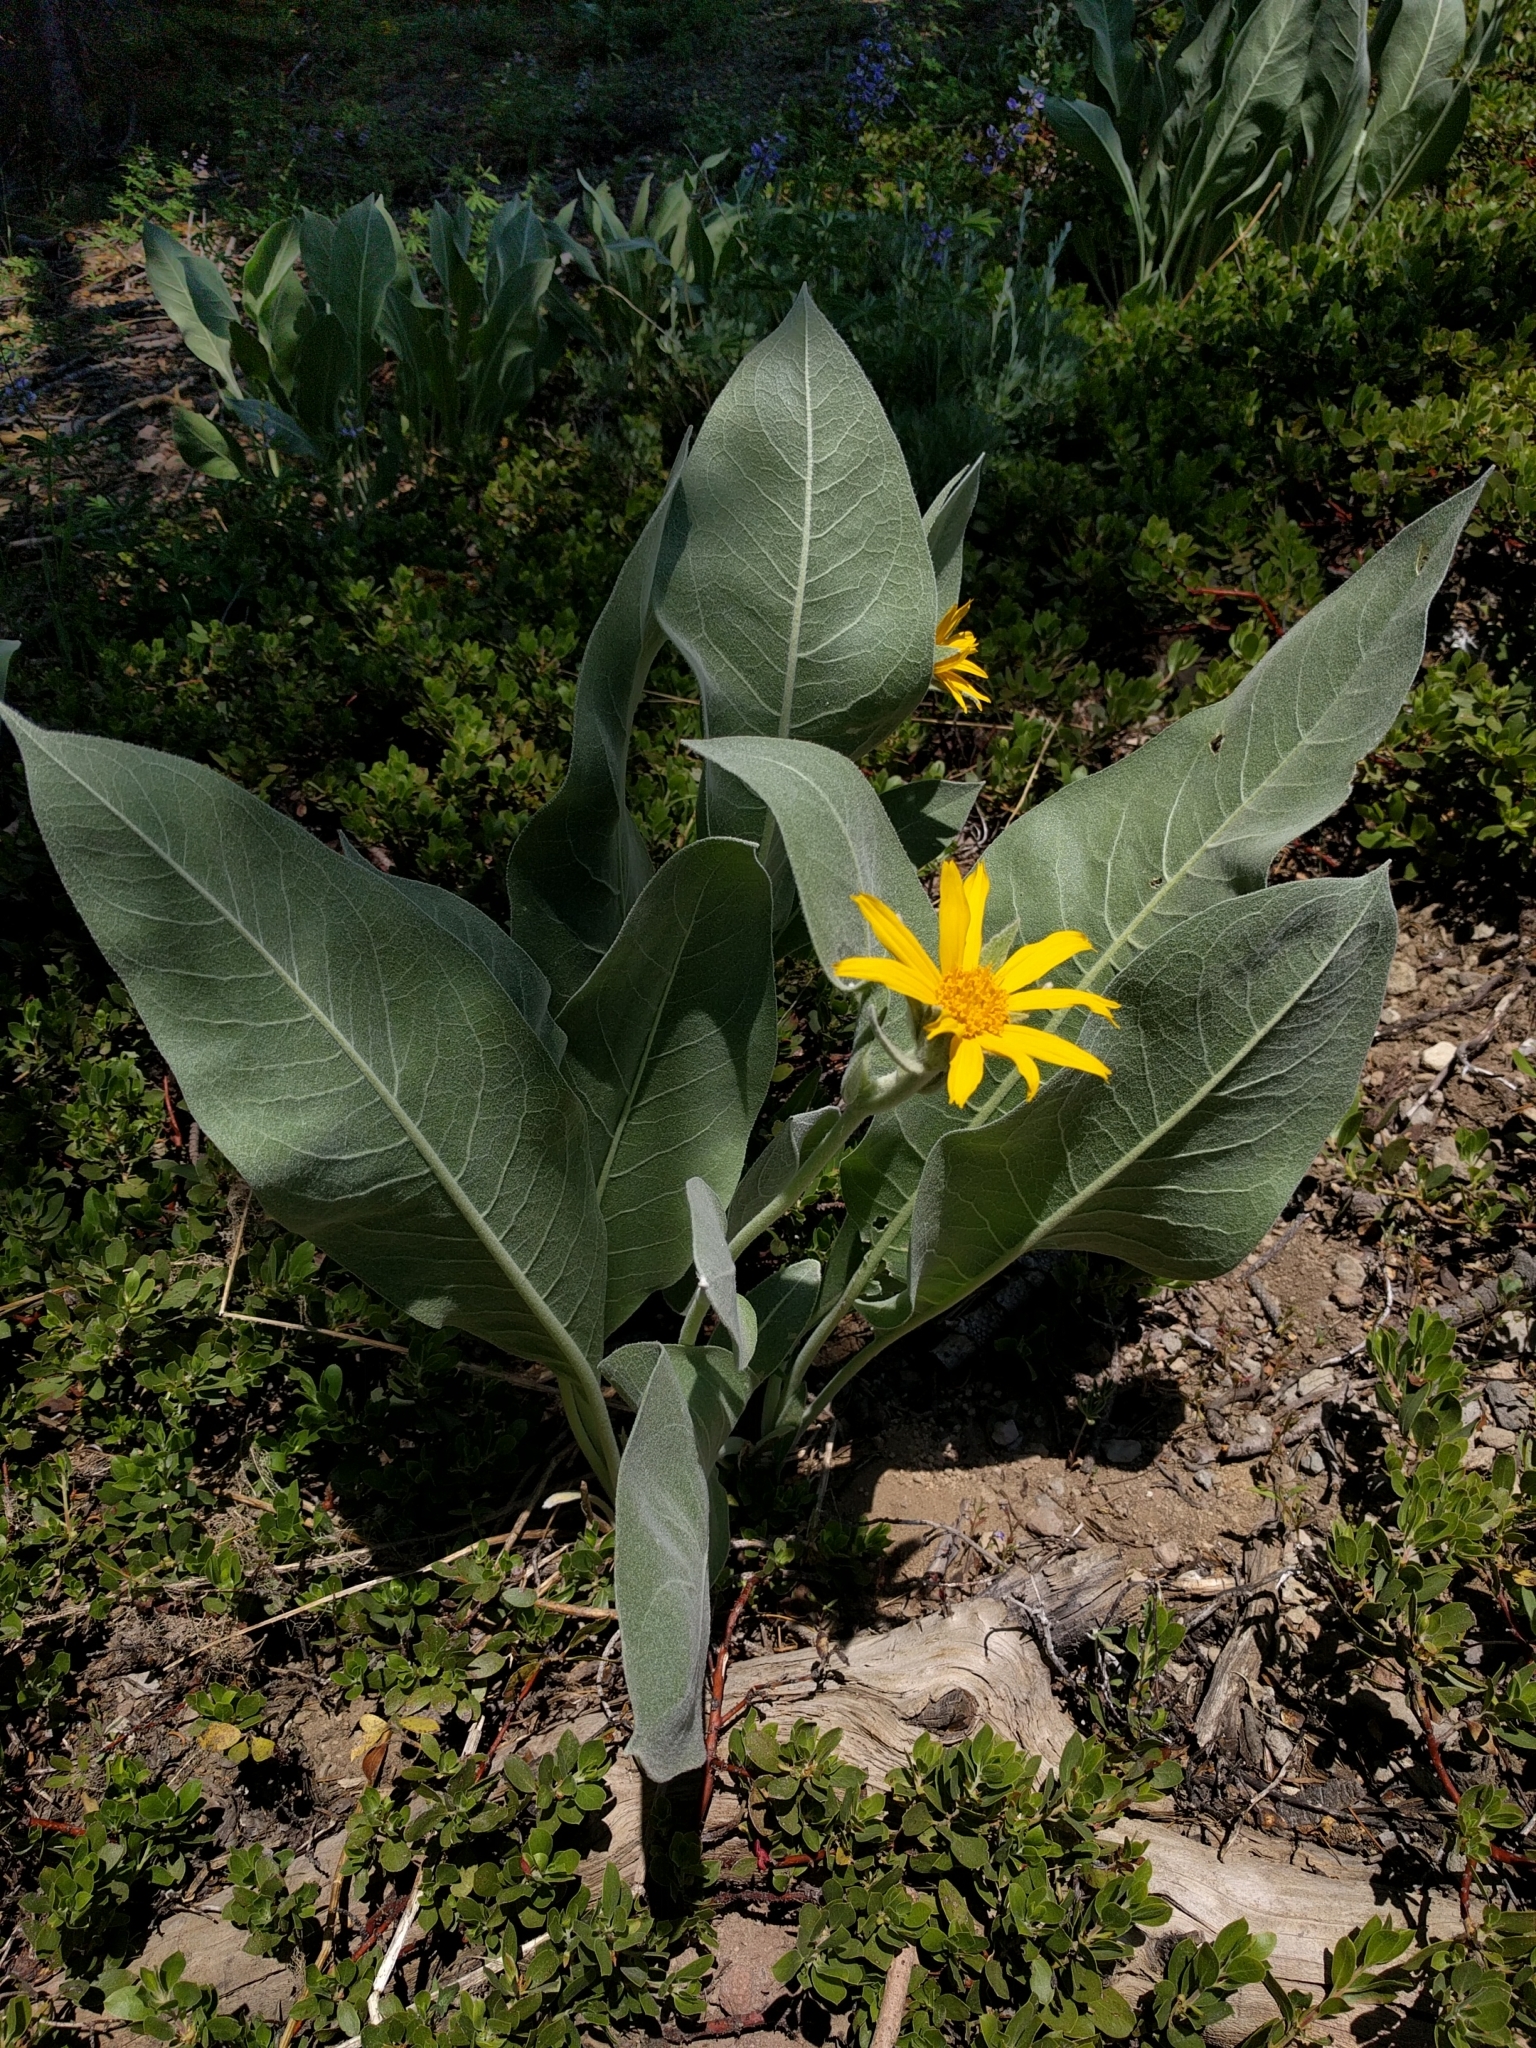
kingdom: Plantae
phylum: Tracheophyta
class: Magnoliopsida
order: Asterales
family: Asteraceae
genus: Wyethia
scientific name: Wyethia mollis
